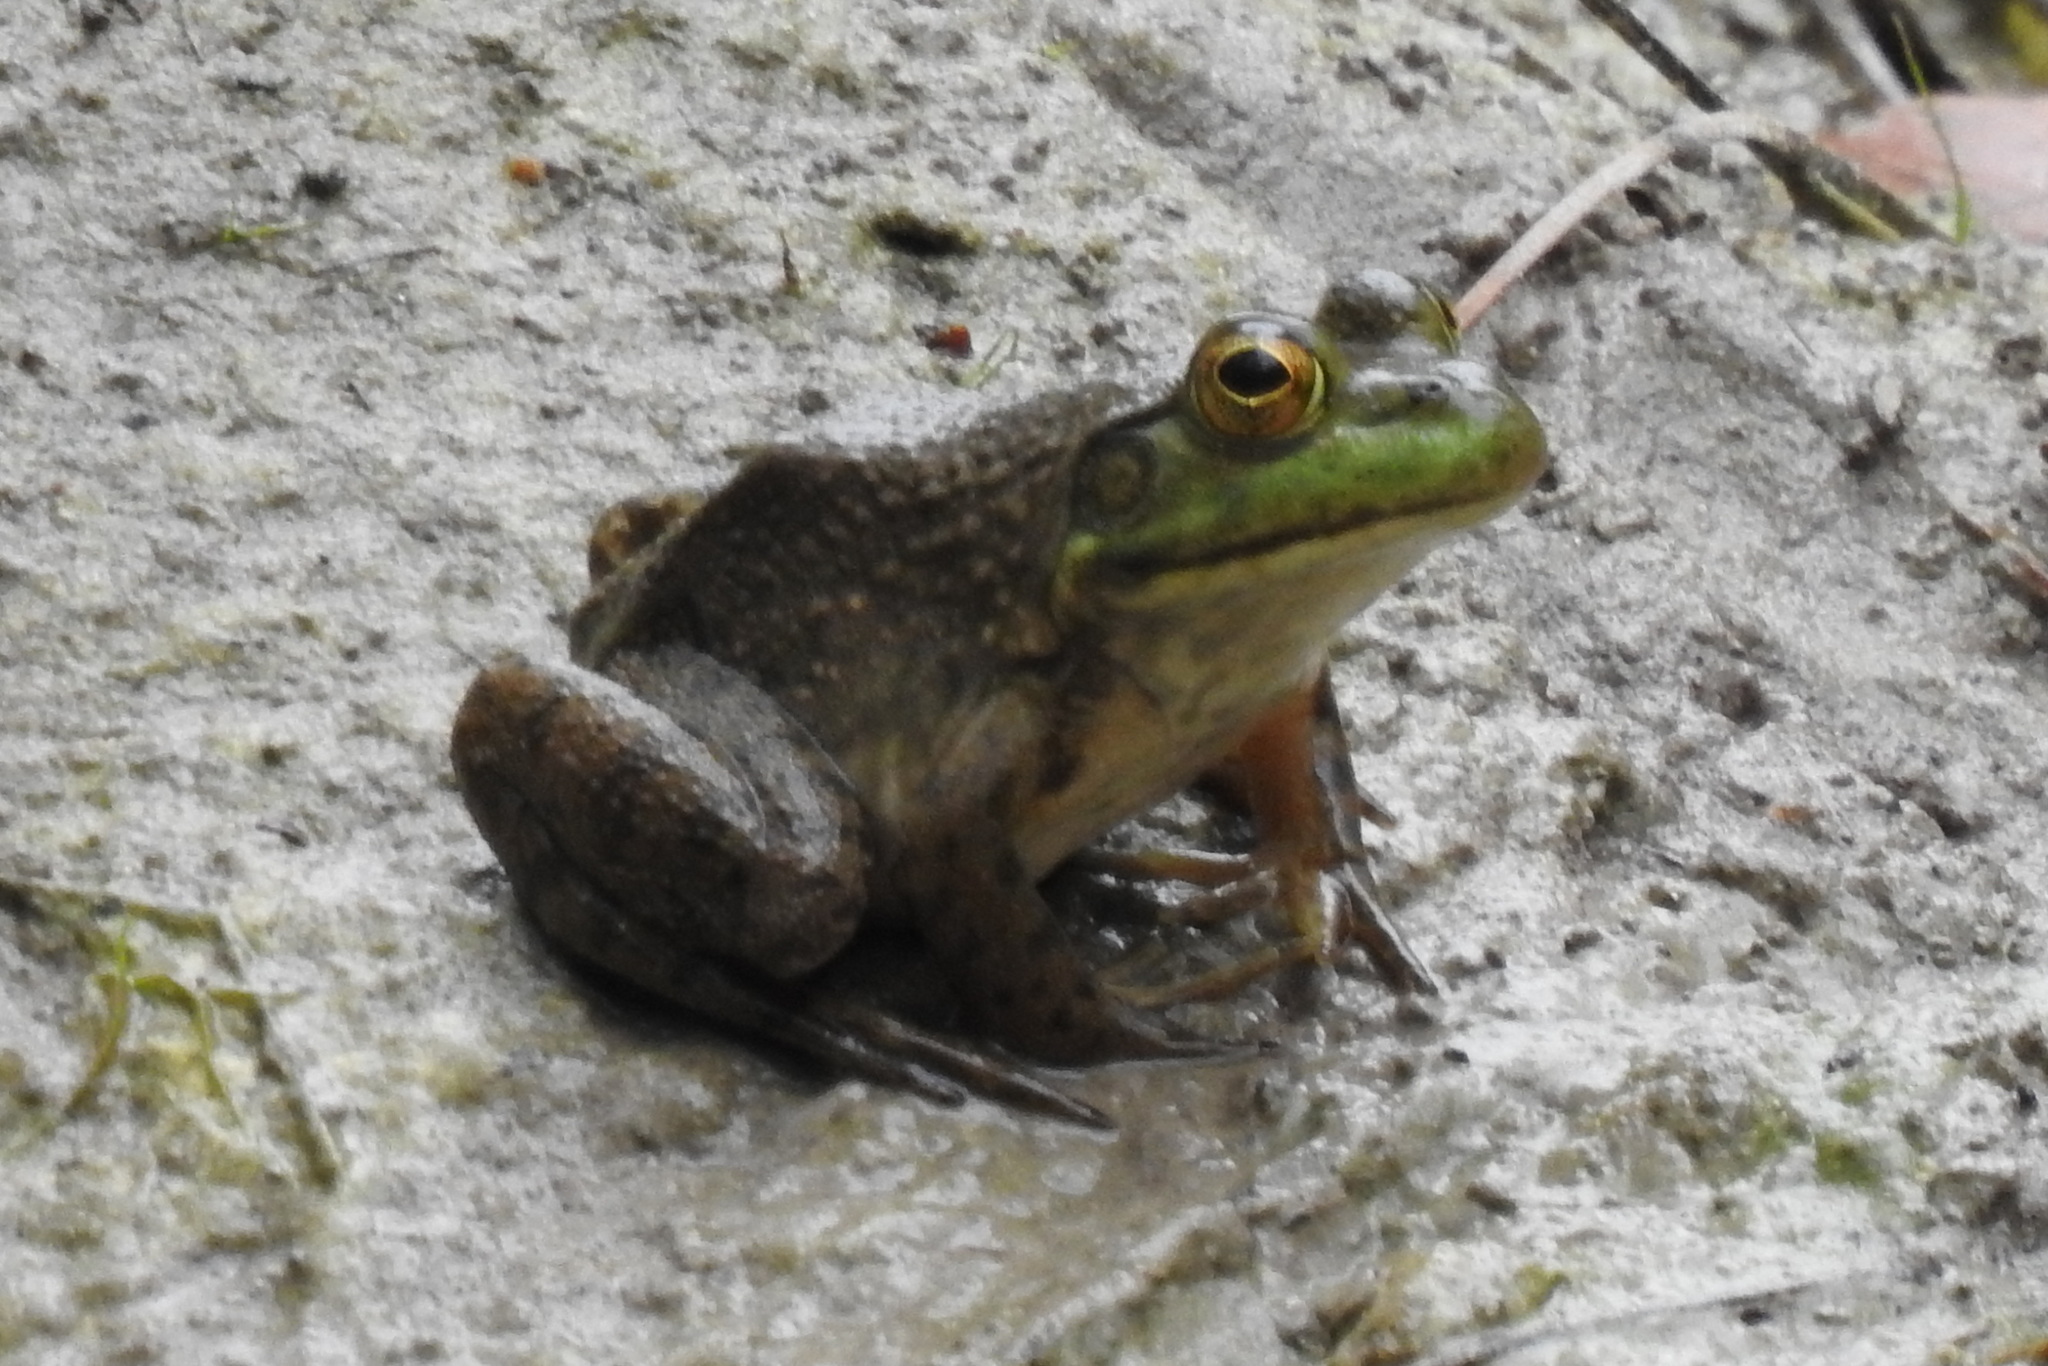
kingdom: Animalia
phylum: Chordata
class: Amphibia
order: Anura
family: Ranidae
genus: Lithobates
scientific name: Lithobates catesbeianus
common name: American bullfrog
